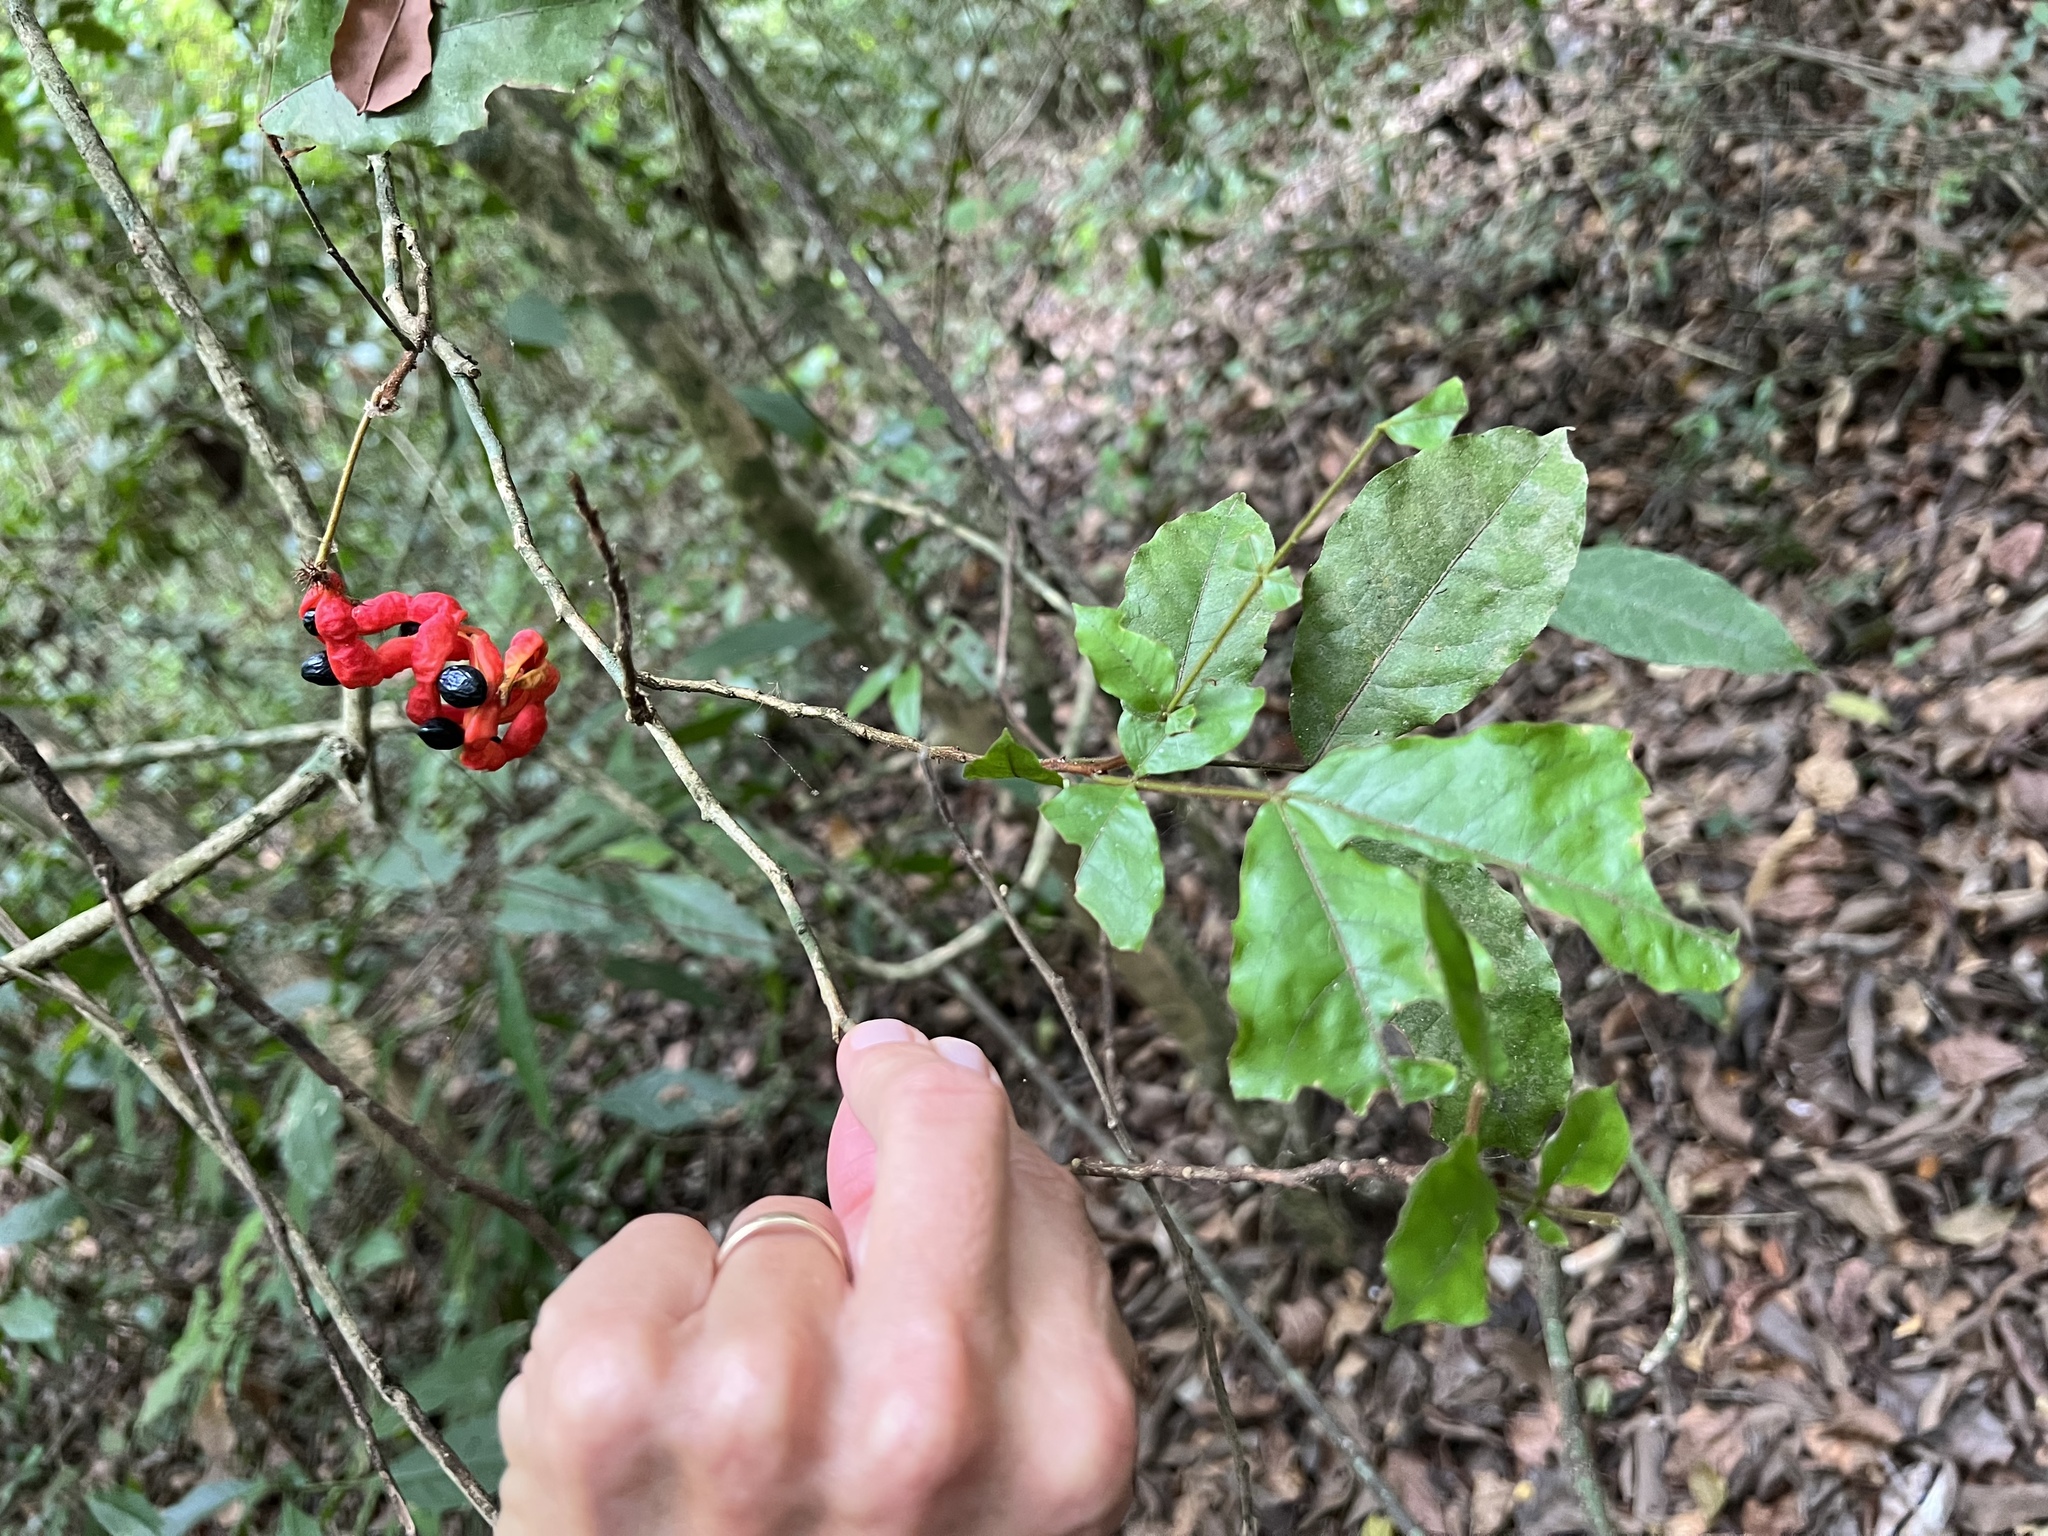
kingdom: Plantae
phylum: Tracheophyta
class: Magnoliopsida
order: Fabales
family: Fabaceae
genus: Cojoba
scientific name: Cojoba rufescens
